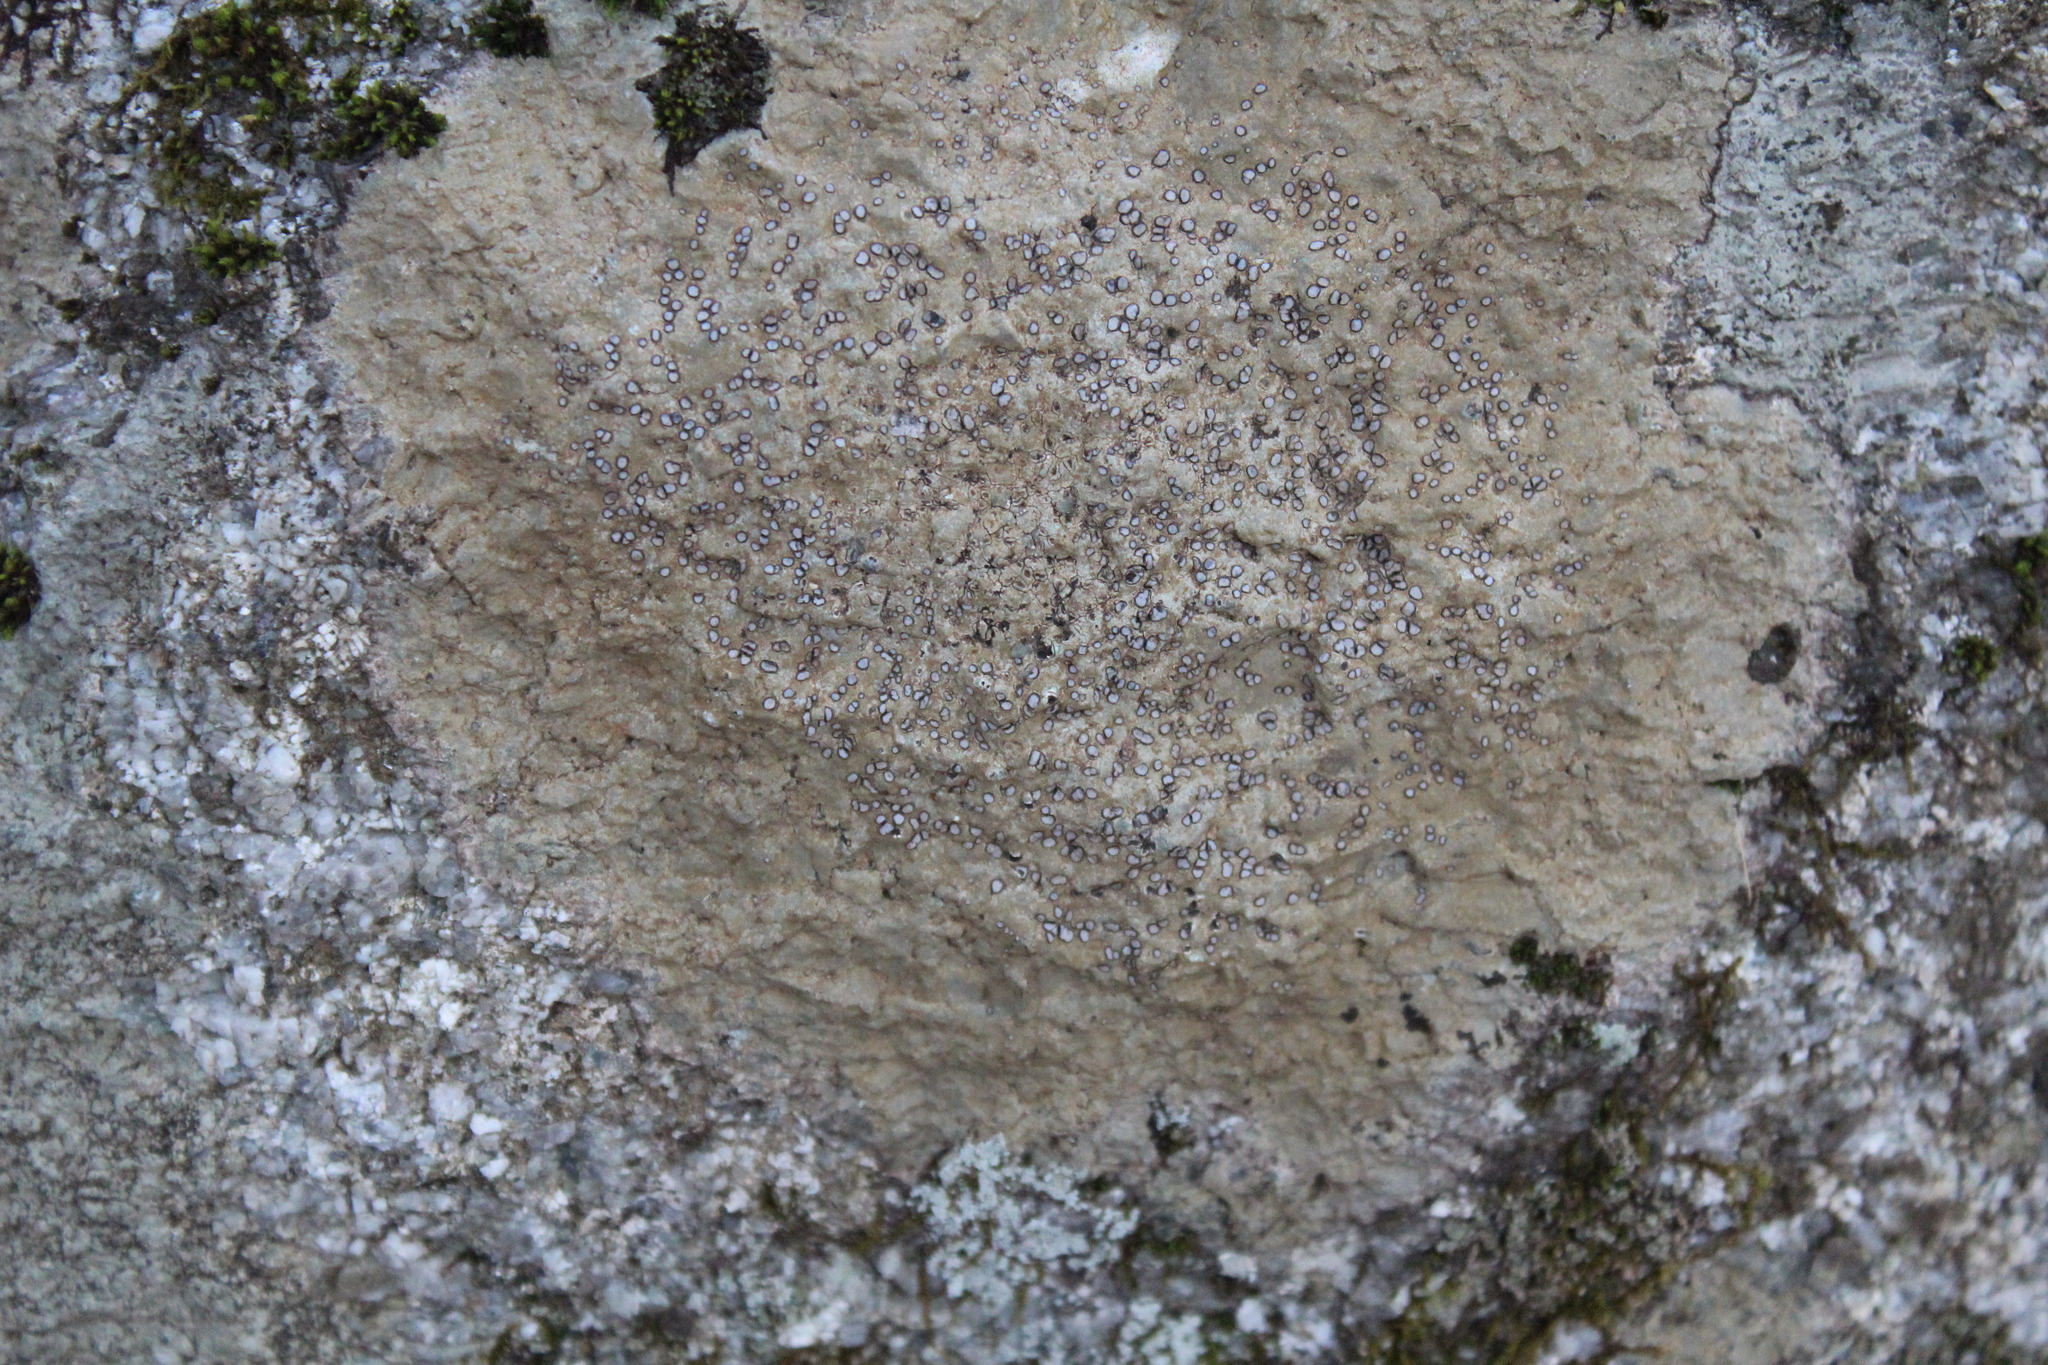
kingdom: Fungi
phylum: Ascomycota
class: Lecanoromycetes
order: Lecideales
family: Lecideaceae
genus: Porpidia
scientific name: Porpidia albocaerulescens
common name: Smokey-eyed boulder lichen
